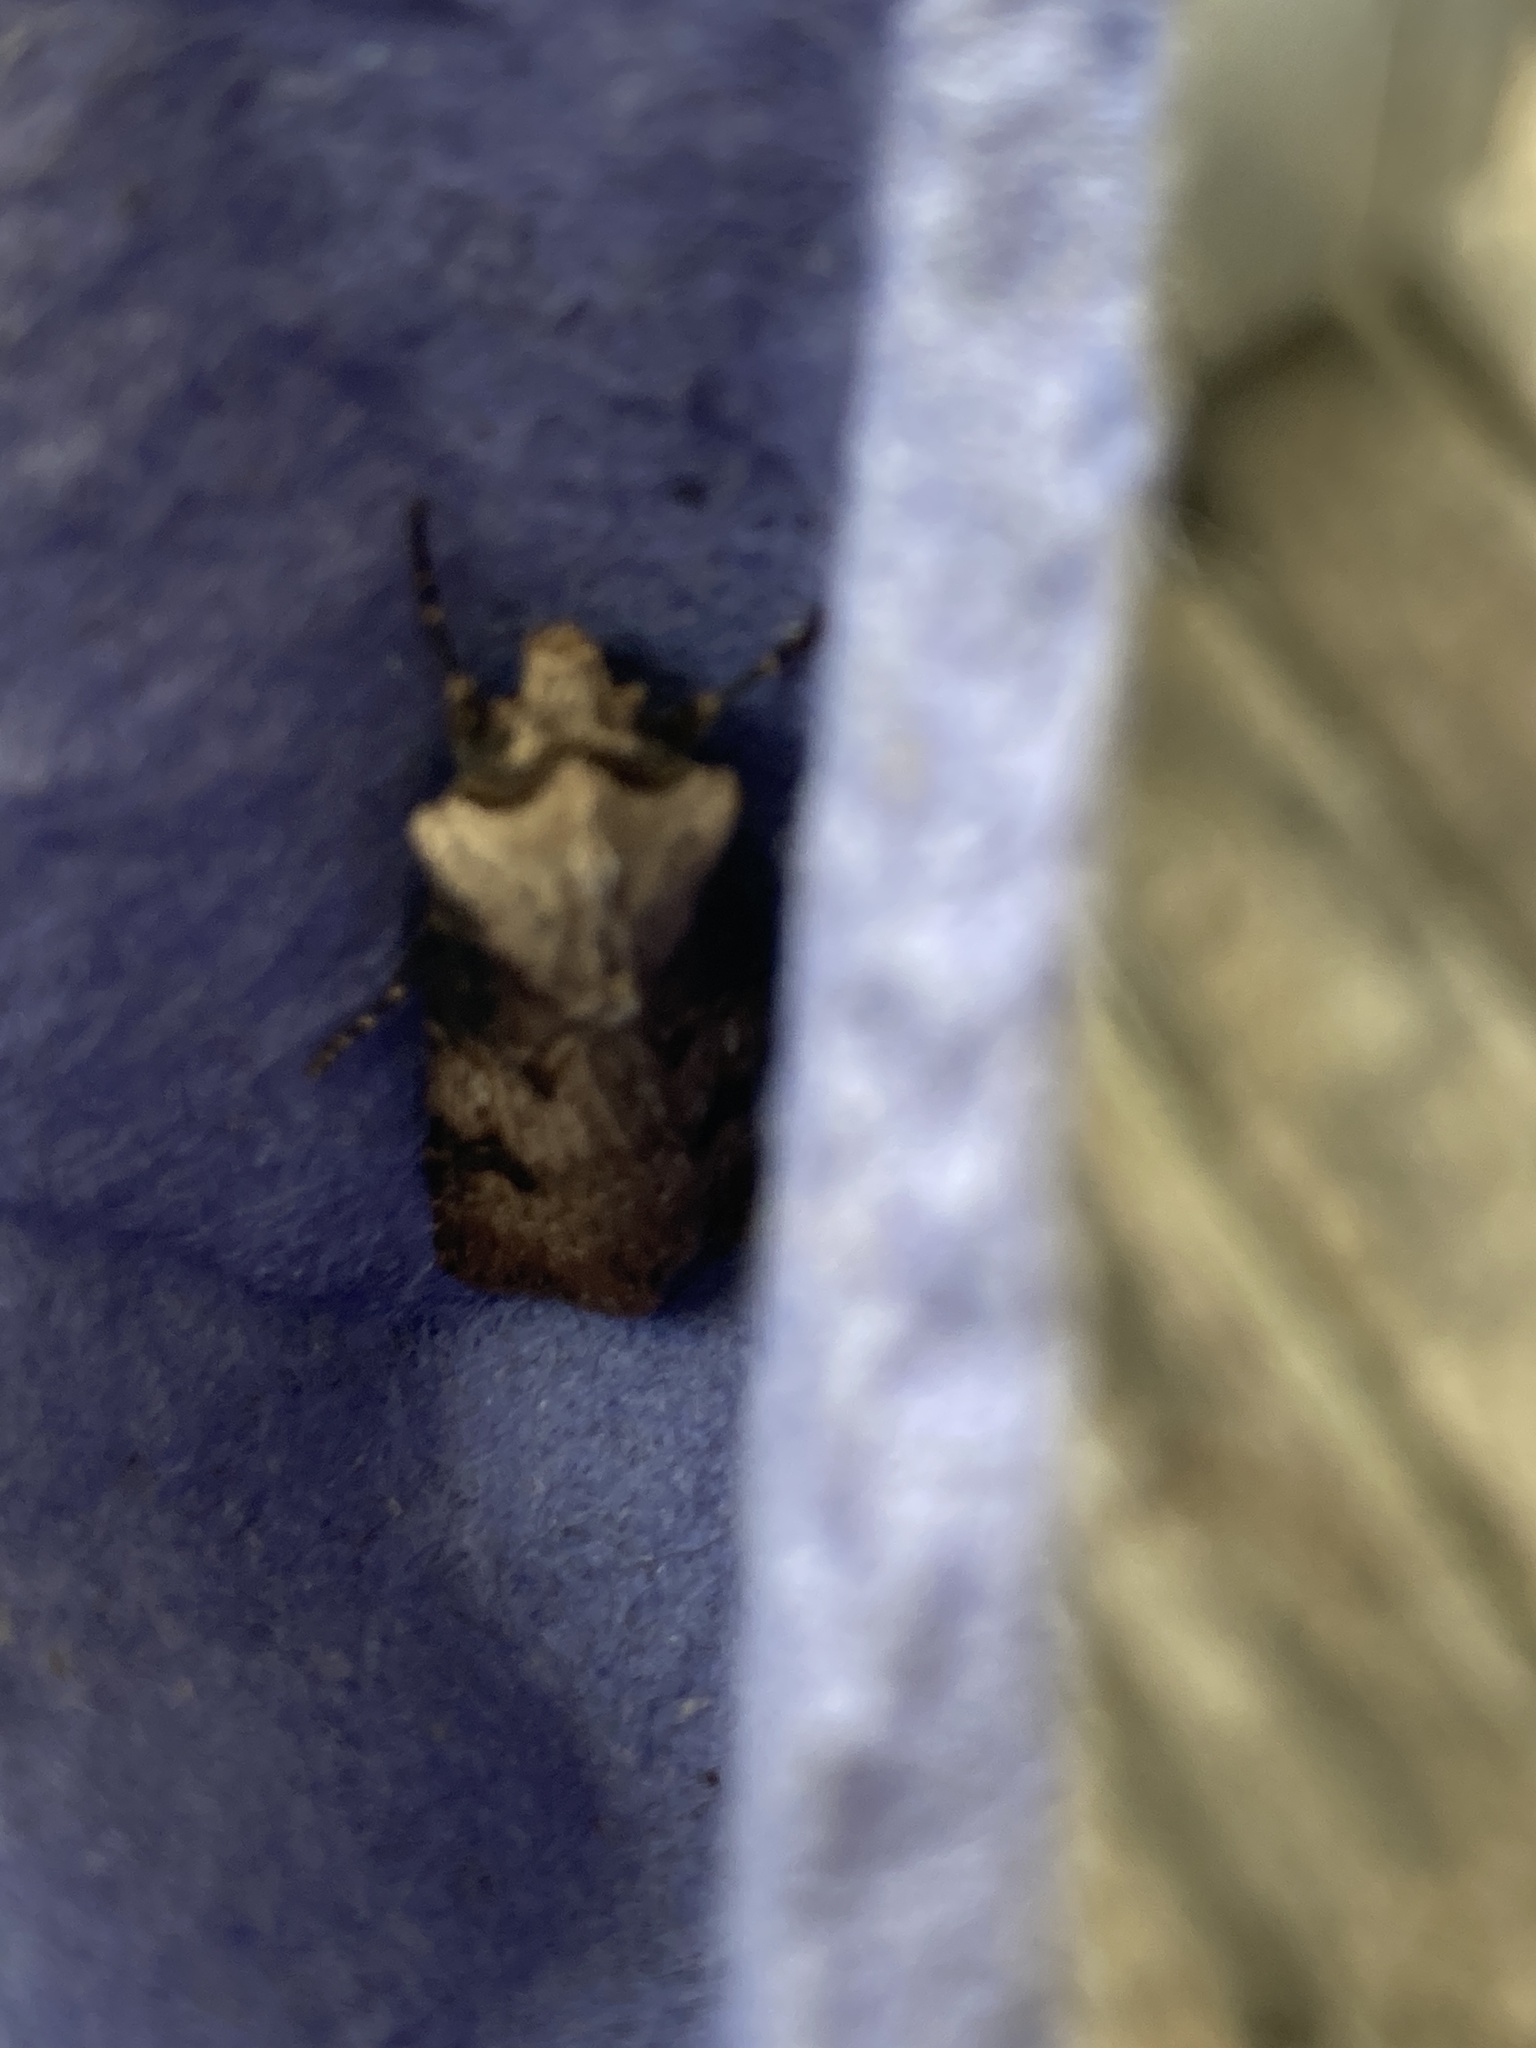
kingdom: Animalia
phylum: Arthropoda
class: Insecta
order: Lepidoptera
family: Noctuidae
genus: Agrotis
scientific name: Agrotis puta
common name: Shuttle-shaped dart
